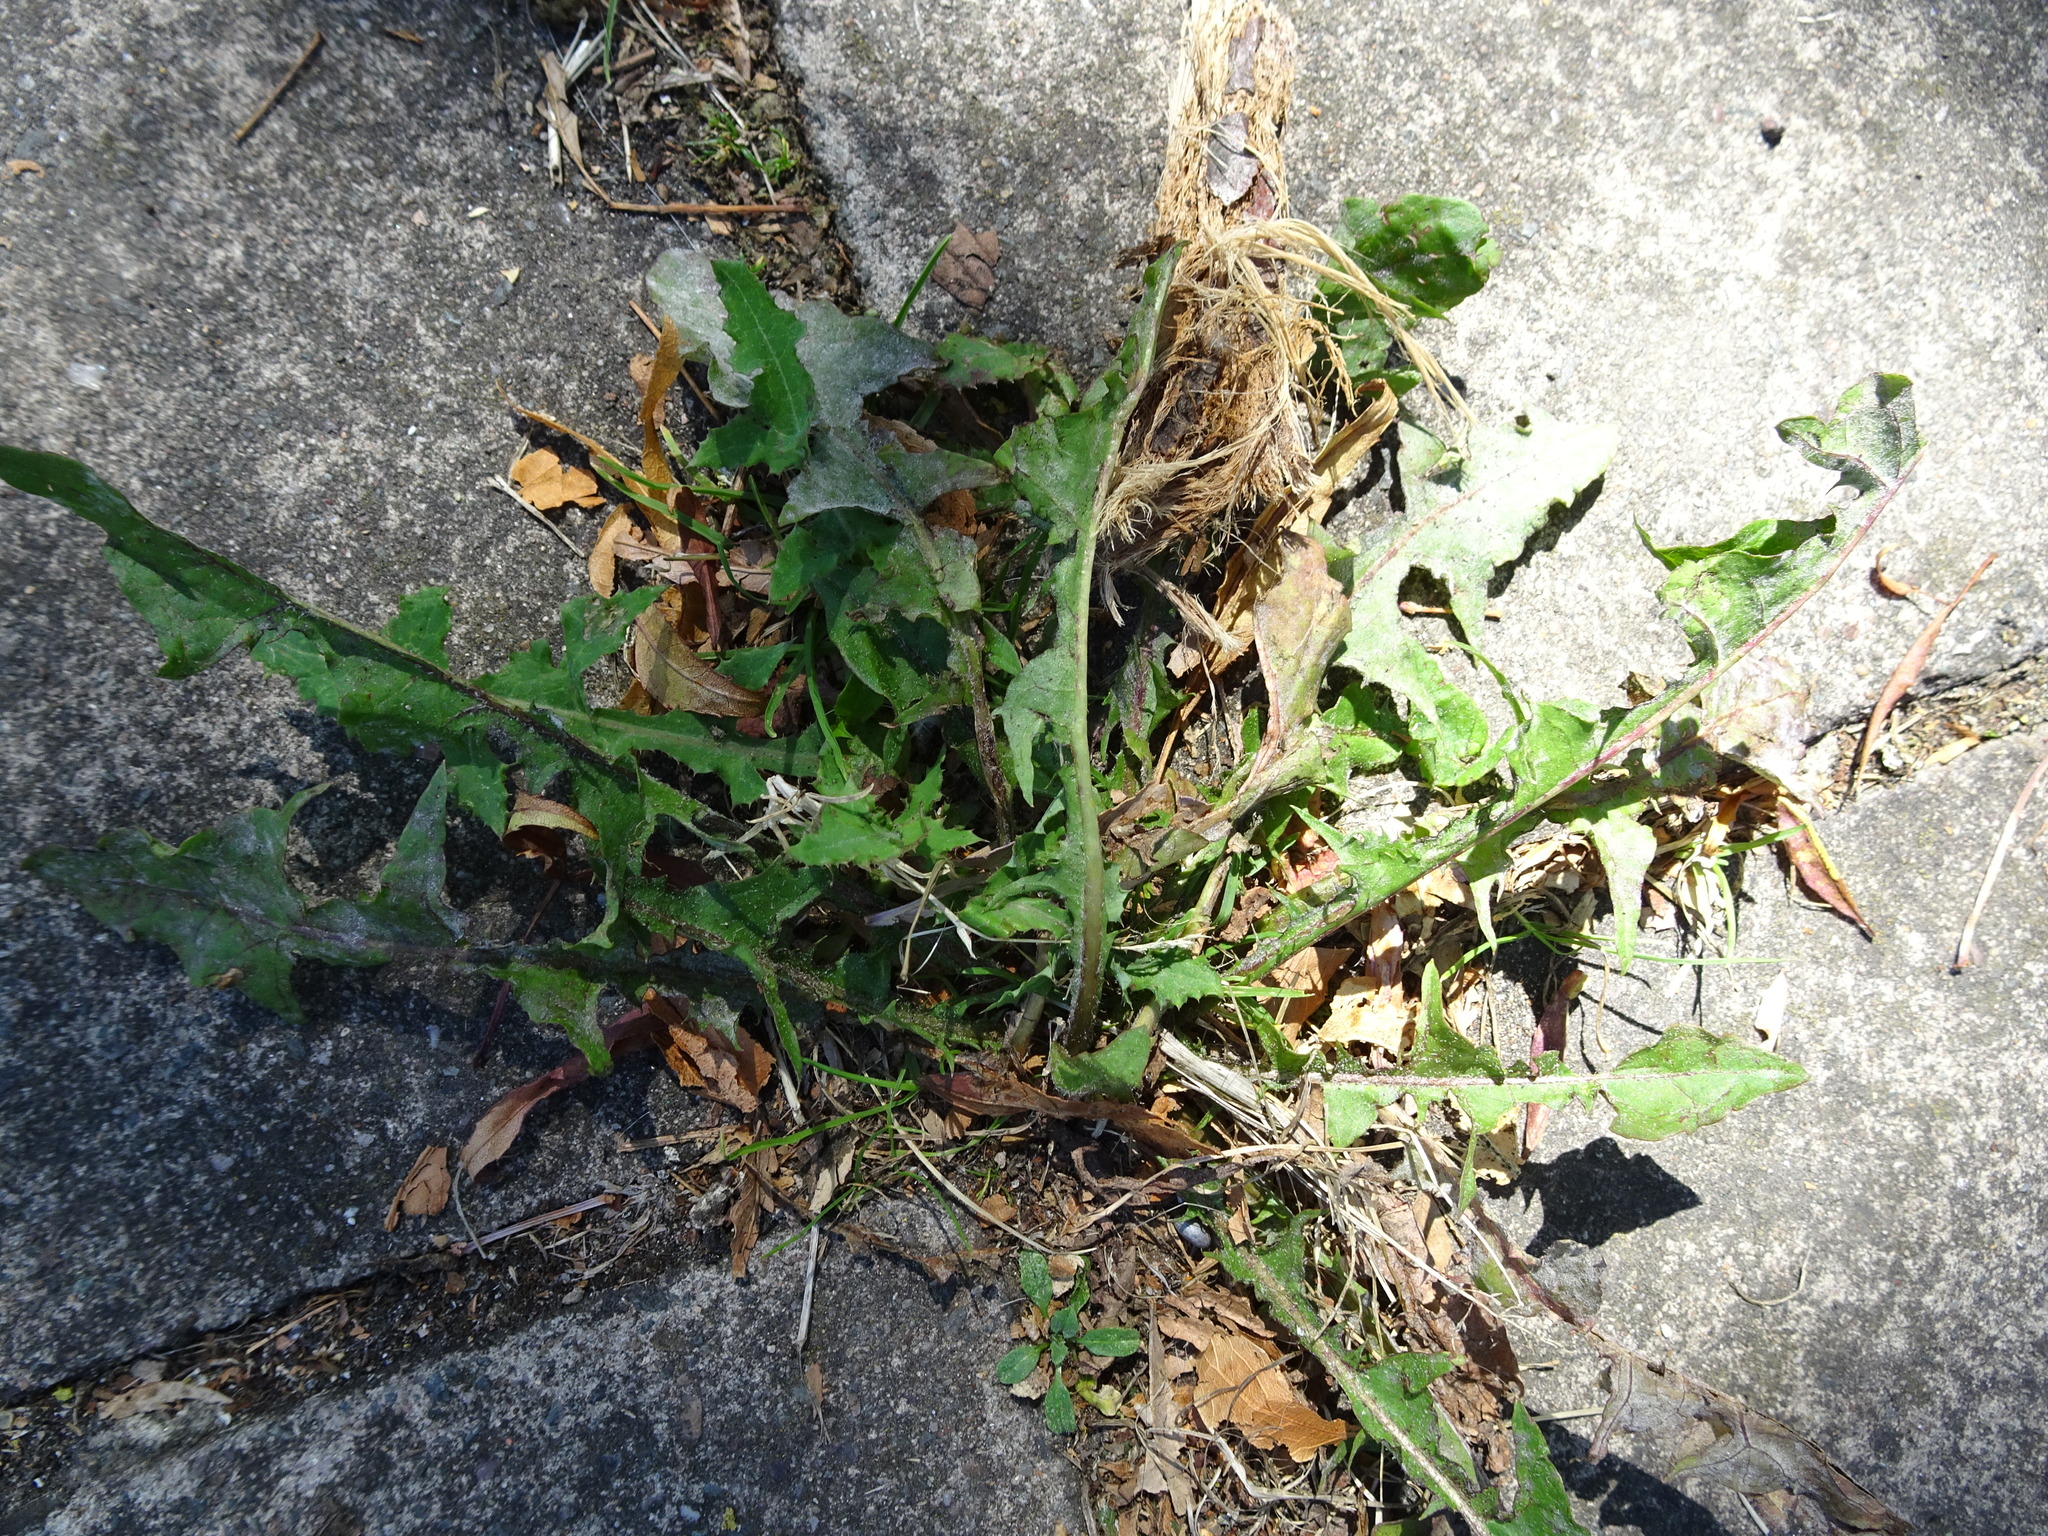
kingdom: Plantae
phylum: Tracheophyta
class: Magnoliopsida
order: Asterales
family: Asteraceae
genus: Taraxacum
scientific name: Taraxacum officinale
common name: Common dandelion
